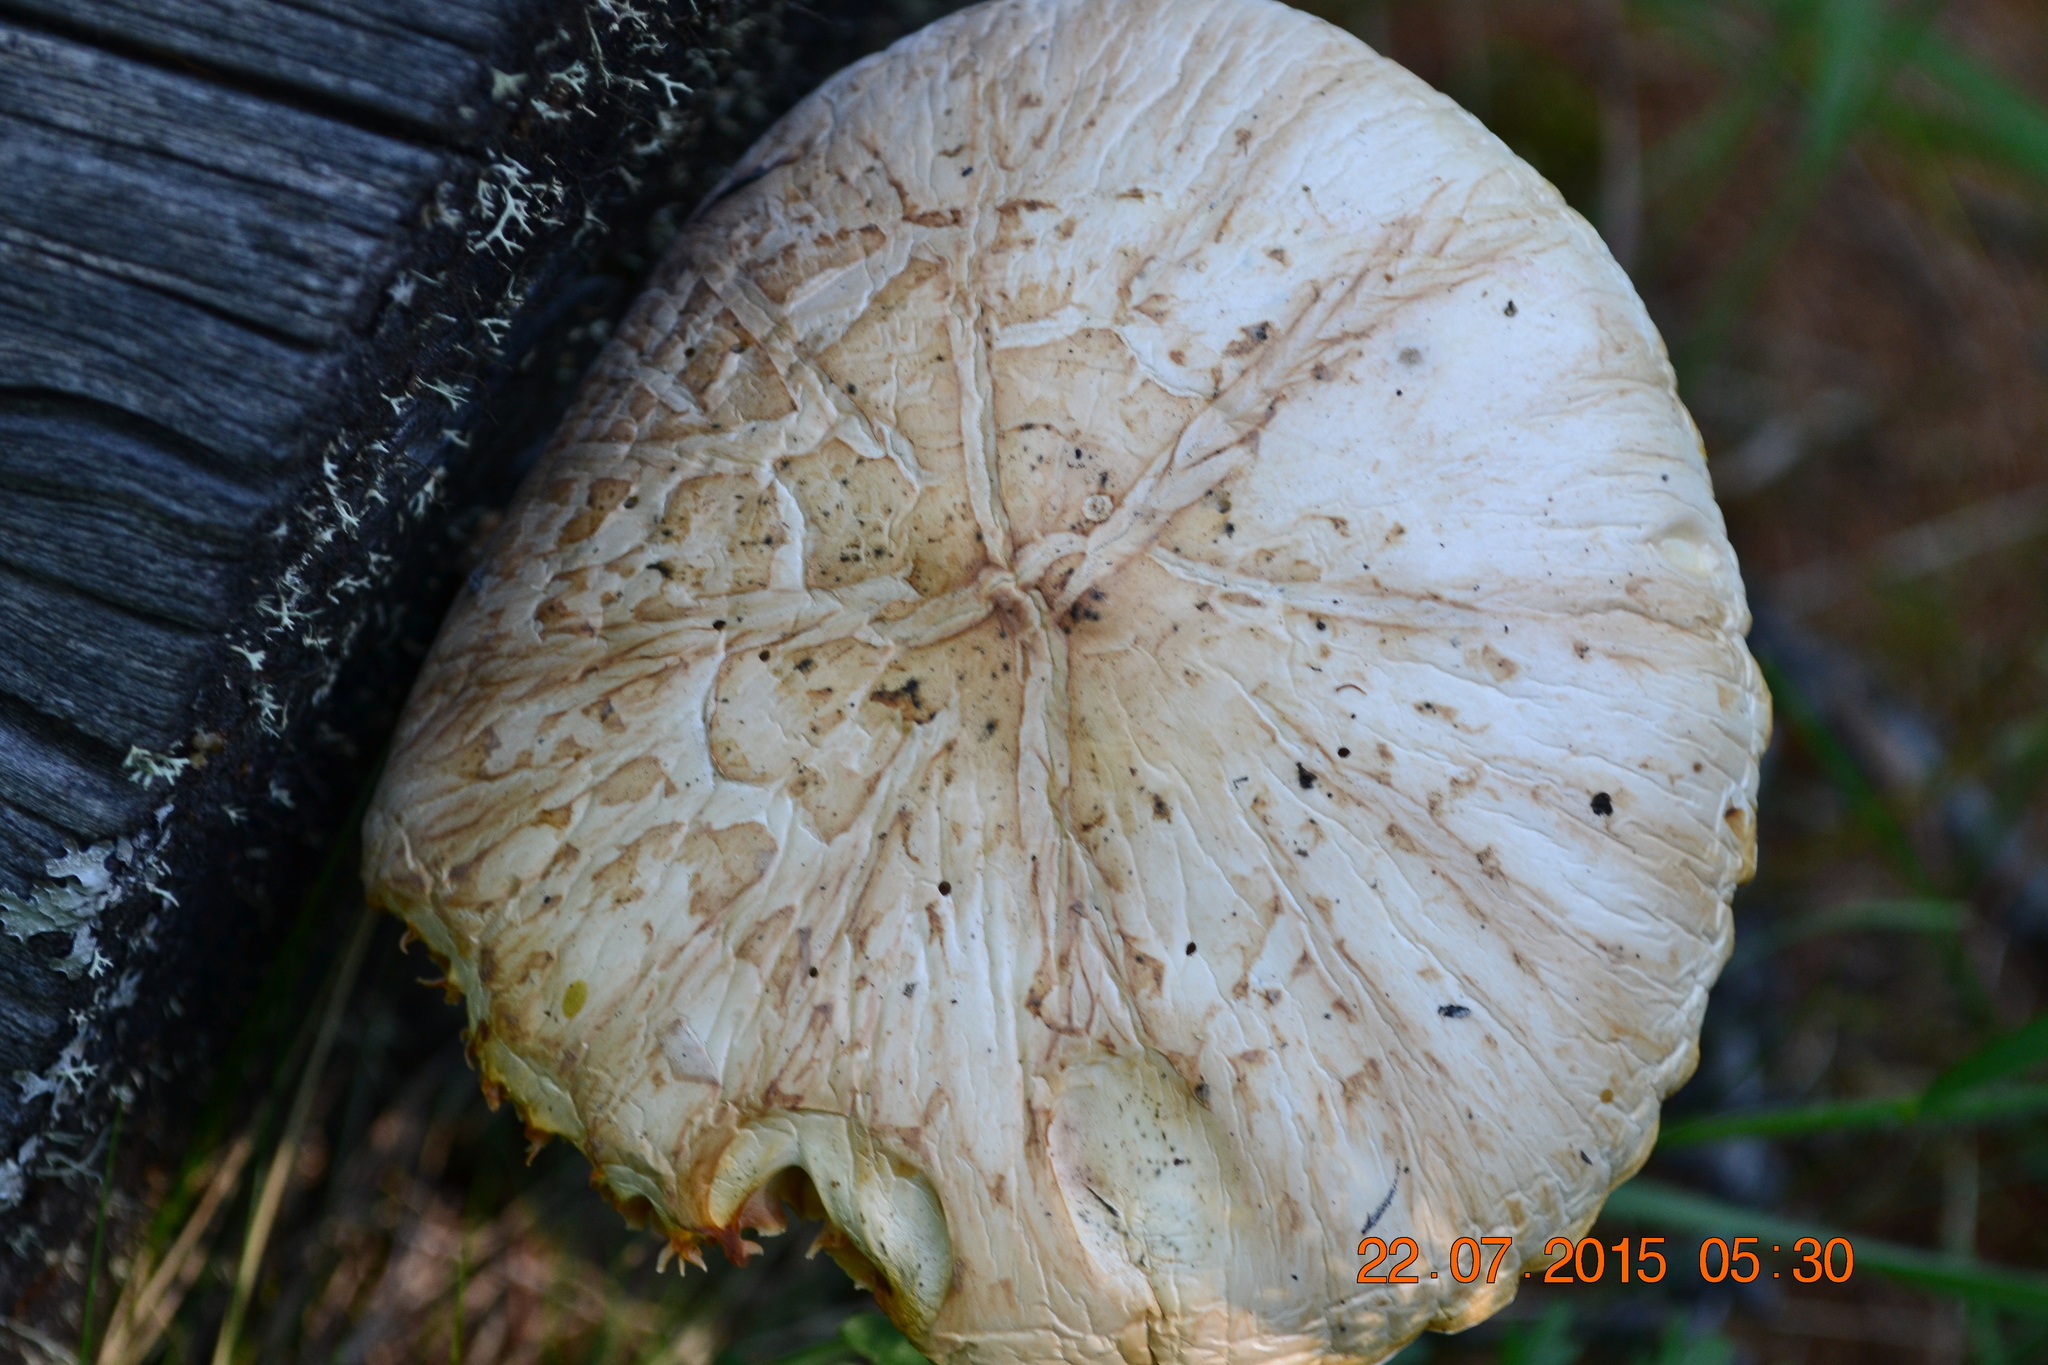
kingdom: Fungi
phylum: Basidiomycota
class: Agaricomycetes
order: Gloeophyllales
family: Gloeophyllaceae
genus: Neolentinus
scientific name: Neolentinus lepideus
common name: Scaly sawgill
